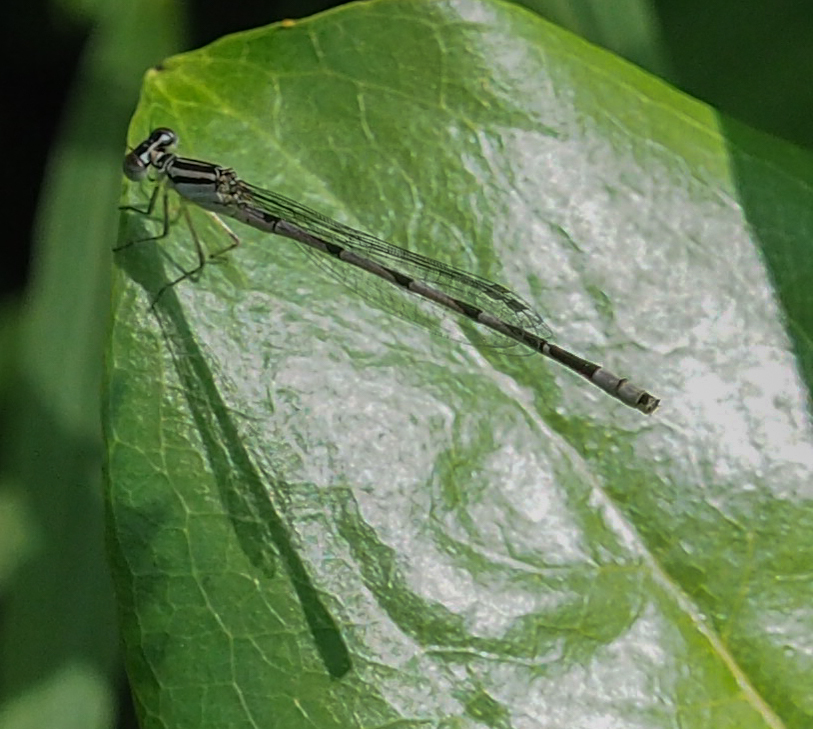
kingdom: Animalia
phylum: Arthropoda
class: Insecta
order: Odonata
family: Coenagrionidae
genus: Enallagma
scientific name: Enallagma durum
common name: Big bluet
